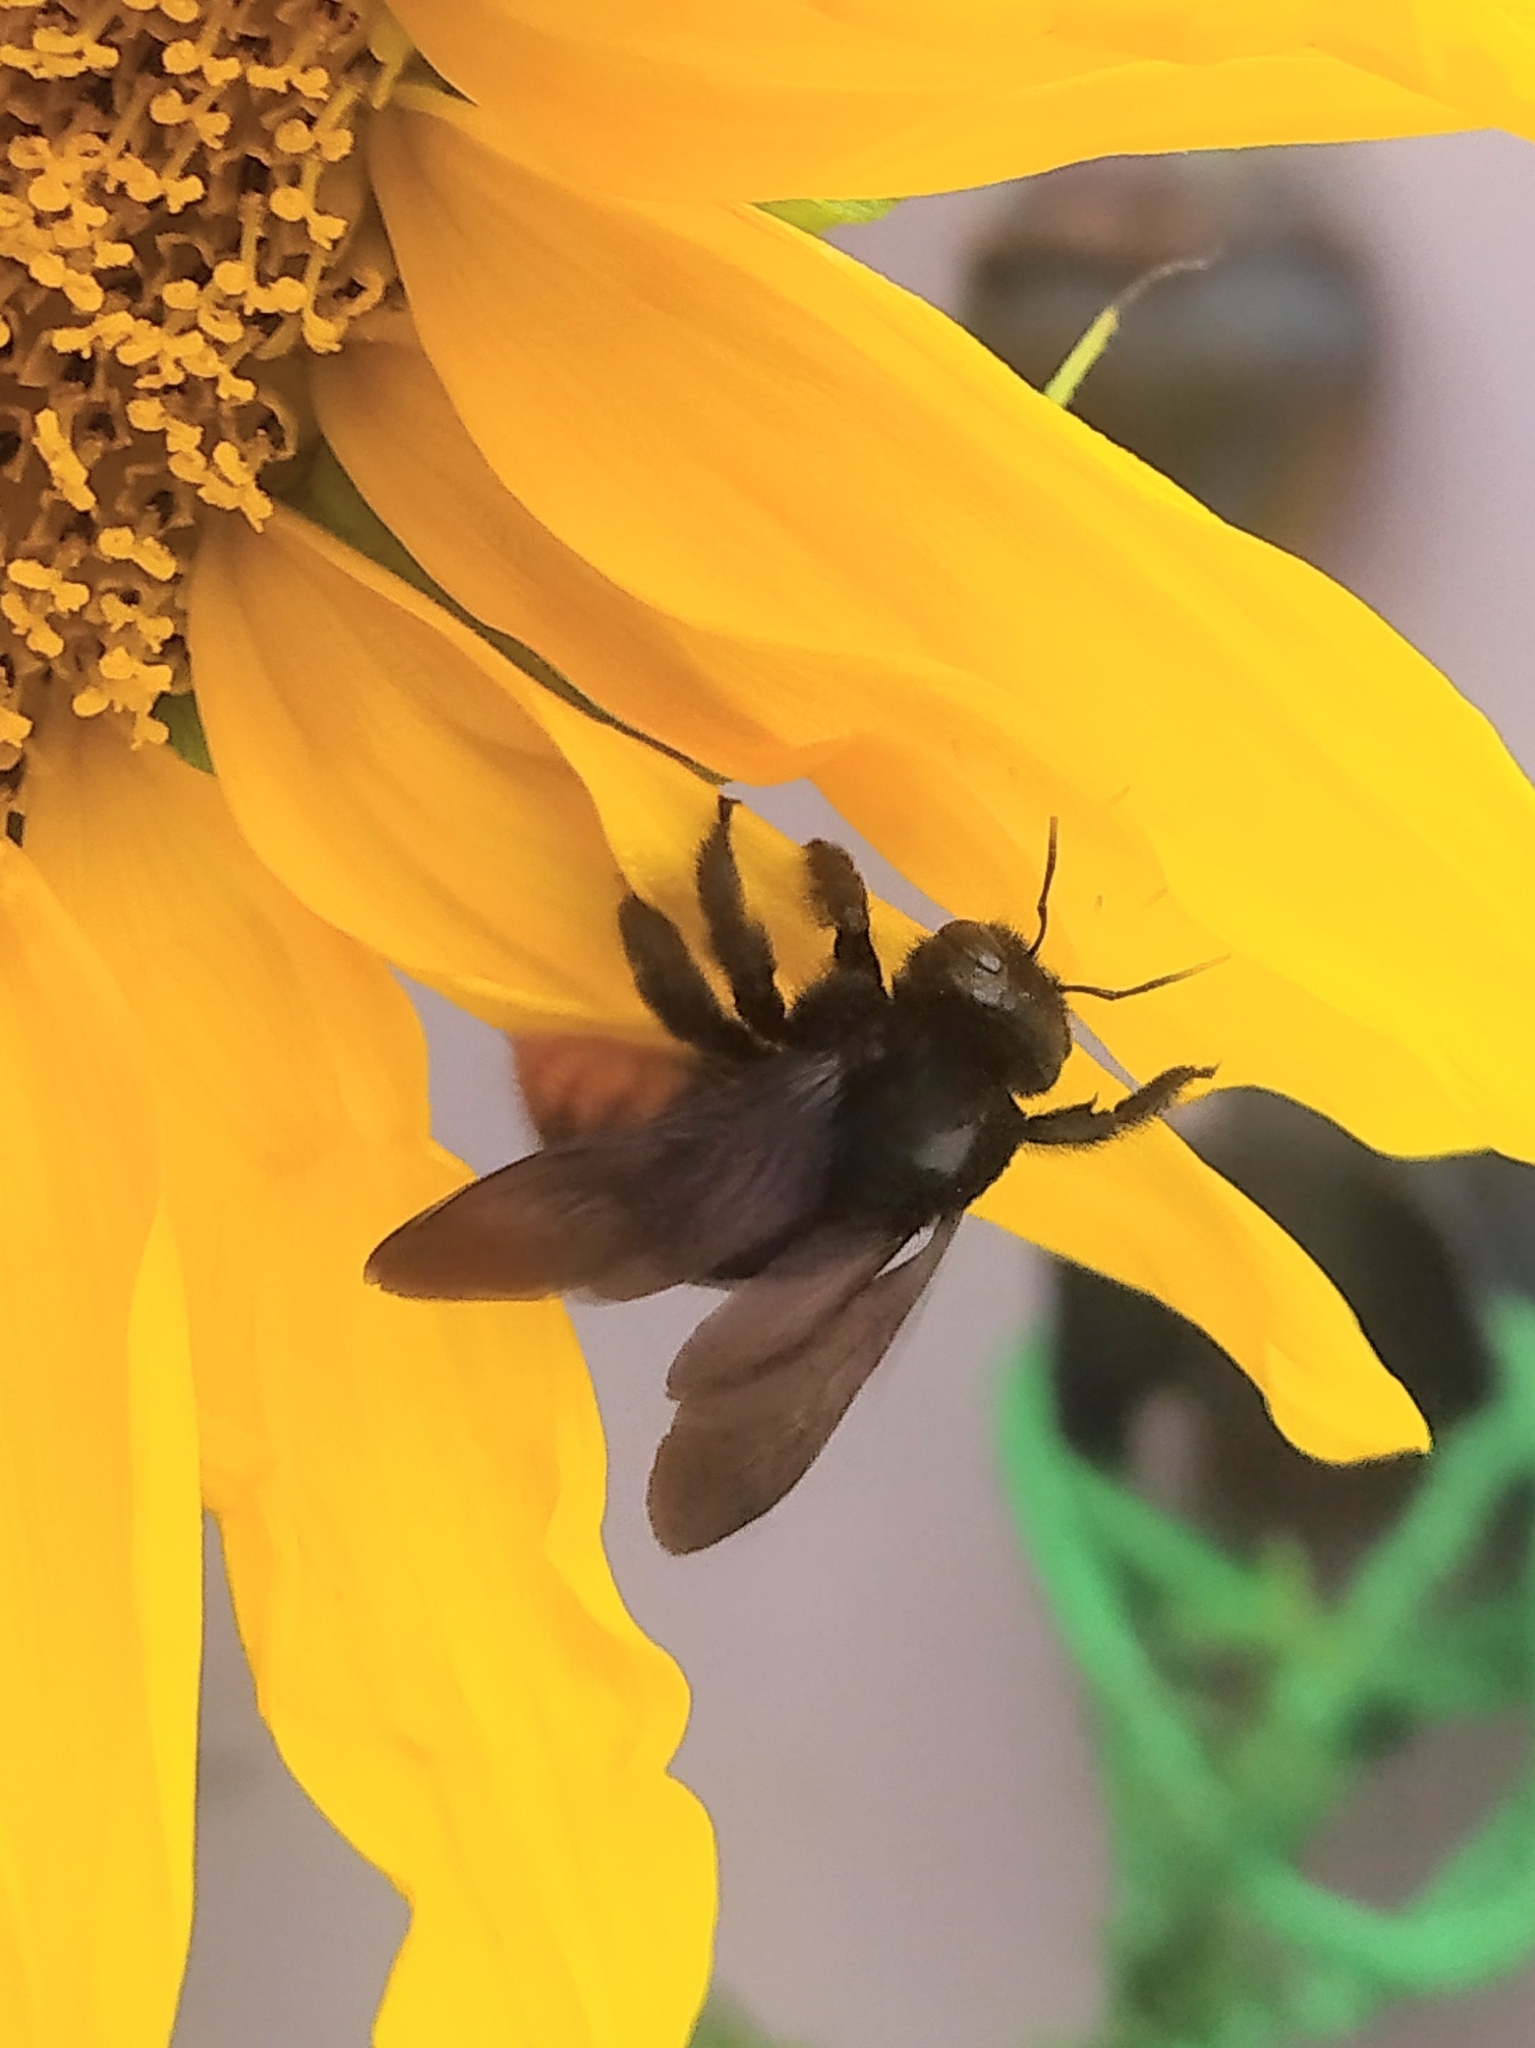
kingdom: Animalia
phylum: Arthropoda
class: Insecta
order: Hymenoptera
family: Apidae
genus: Xylocopa
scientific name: Xylocopa augusti
